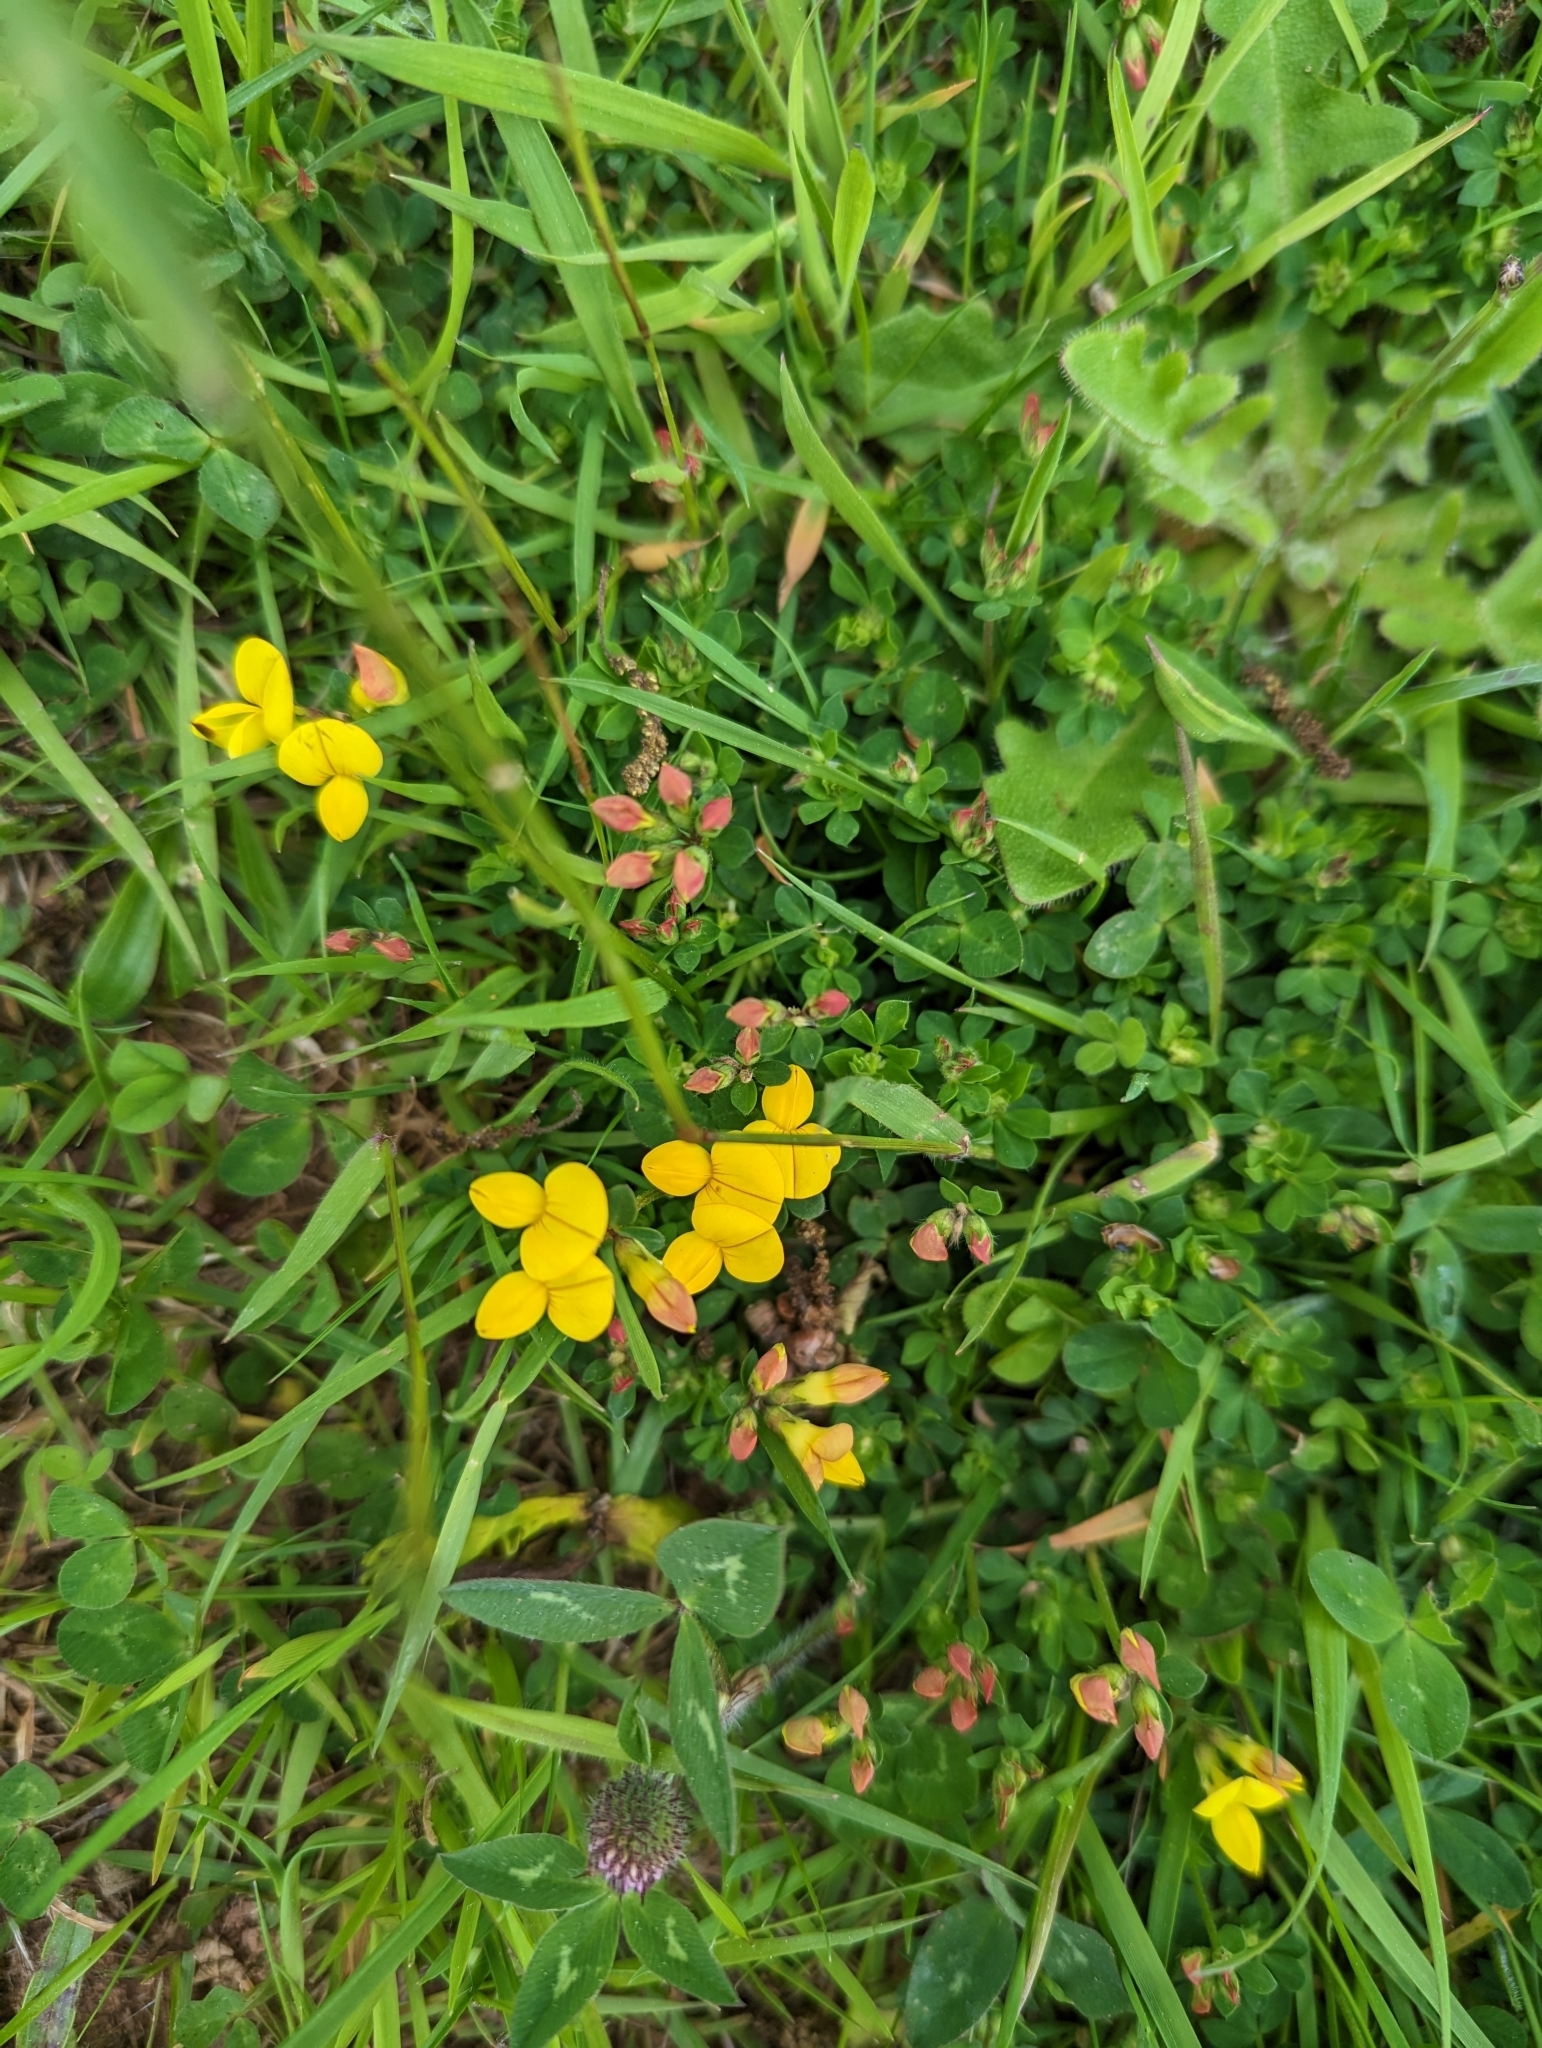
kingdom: Plantae
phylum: Tracheophyta
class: Magnoliopsida
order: Fabales
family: Fabaceae
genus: Lotus
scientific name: Lotus corniculatus
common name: Common bird's-foot-trefoil
